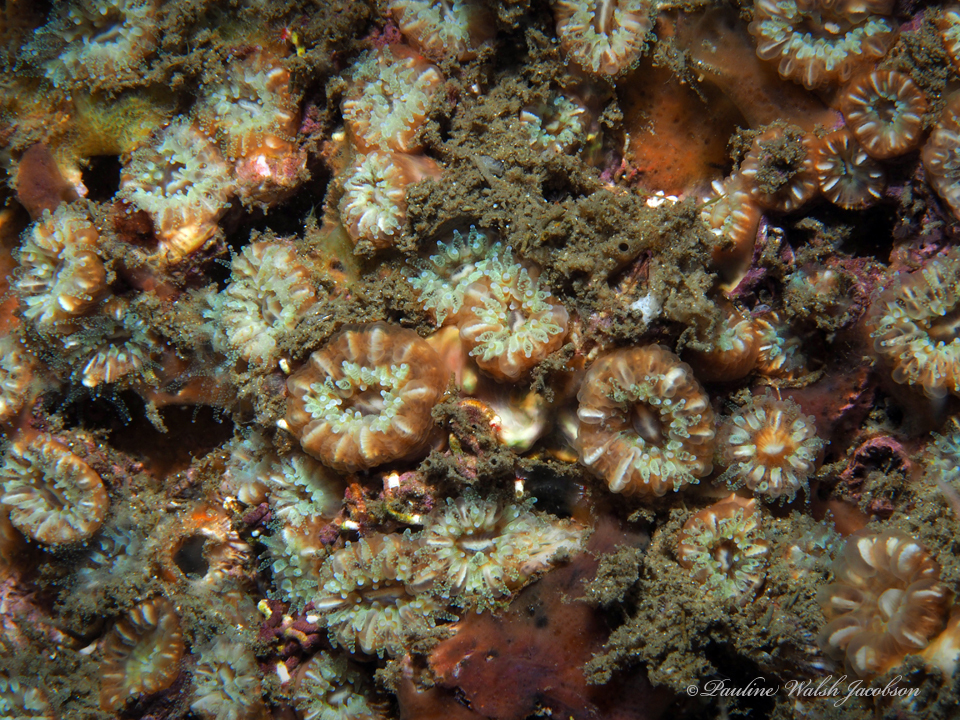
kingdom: Animalia
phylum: Cnidaria
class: Anthozoa
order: Scleractinia
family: Caryophylliidae
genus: Phyllangia
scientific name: Phyllangia americana
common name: Hidden cup coral
